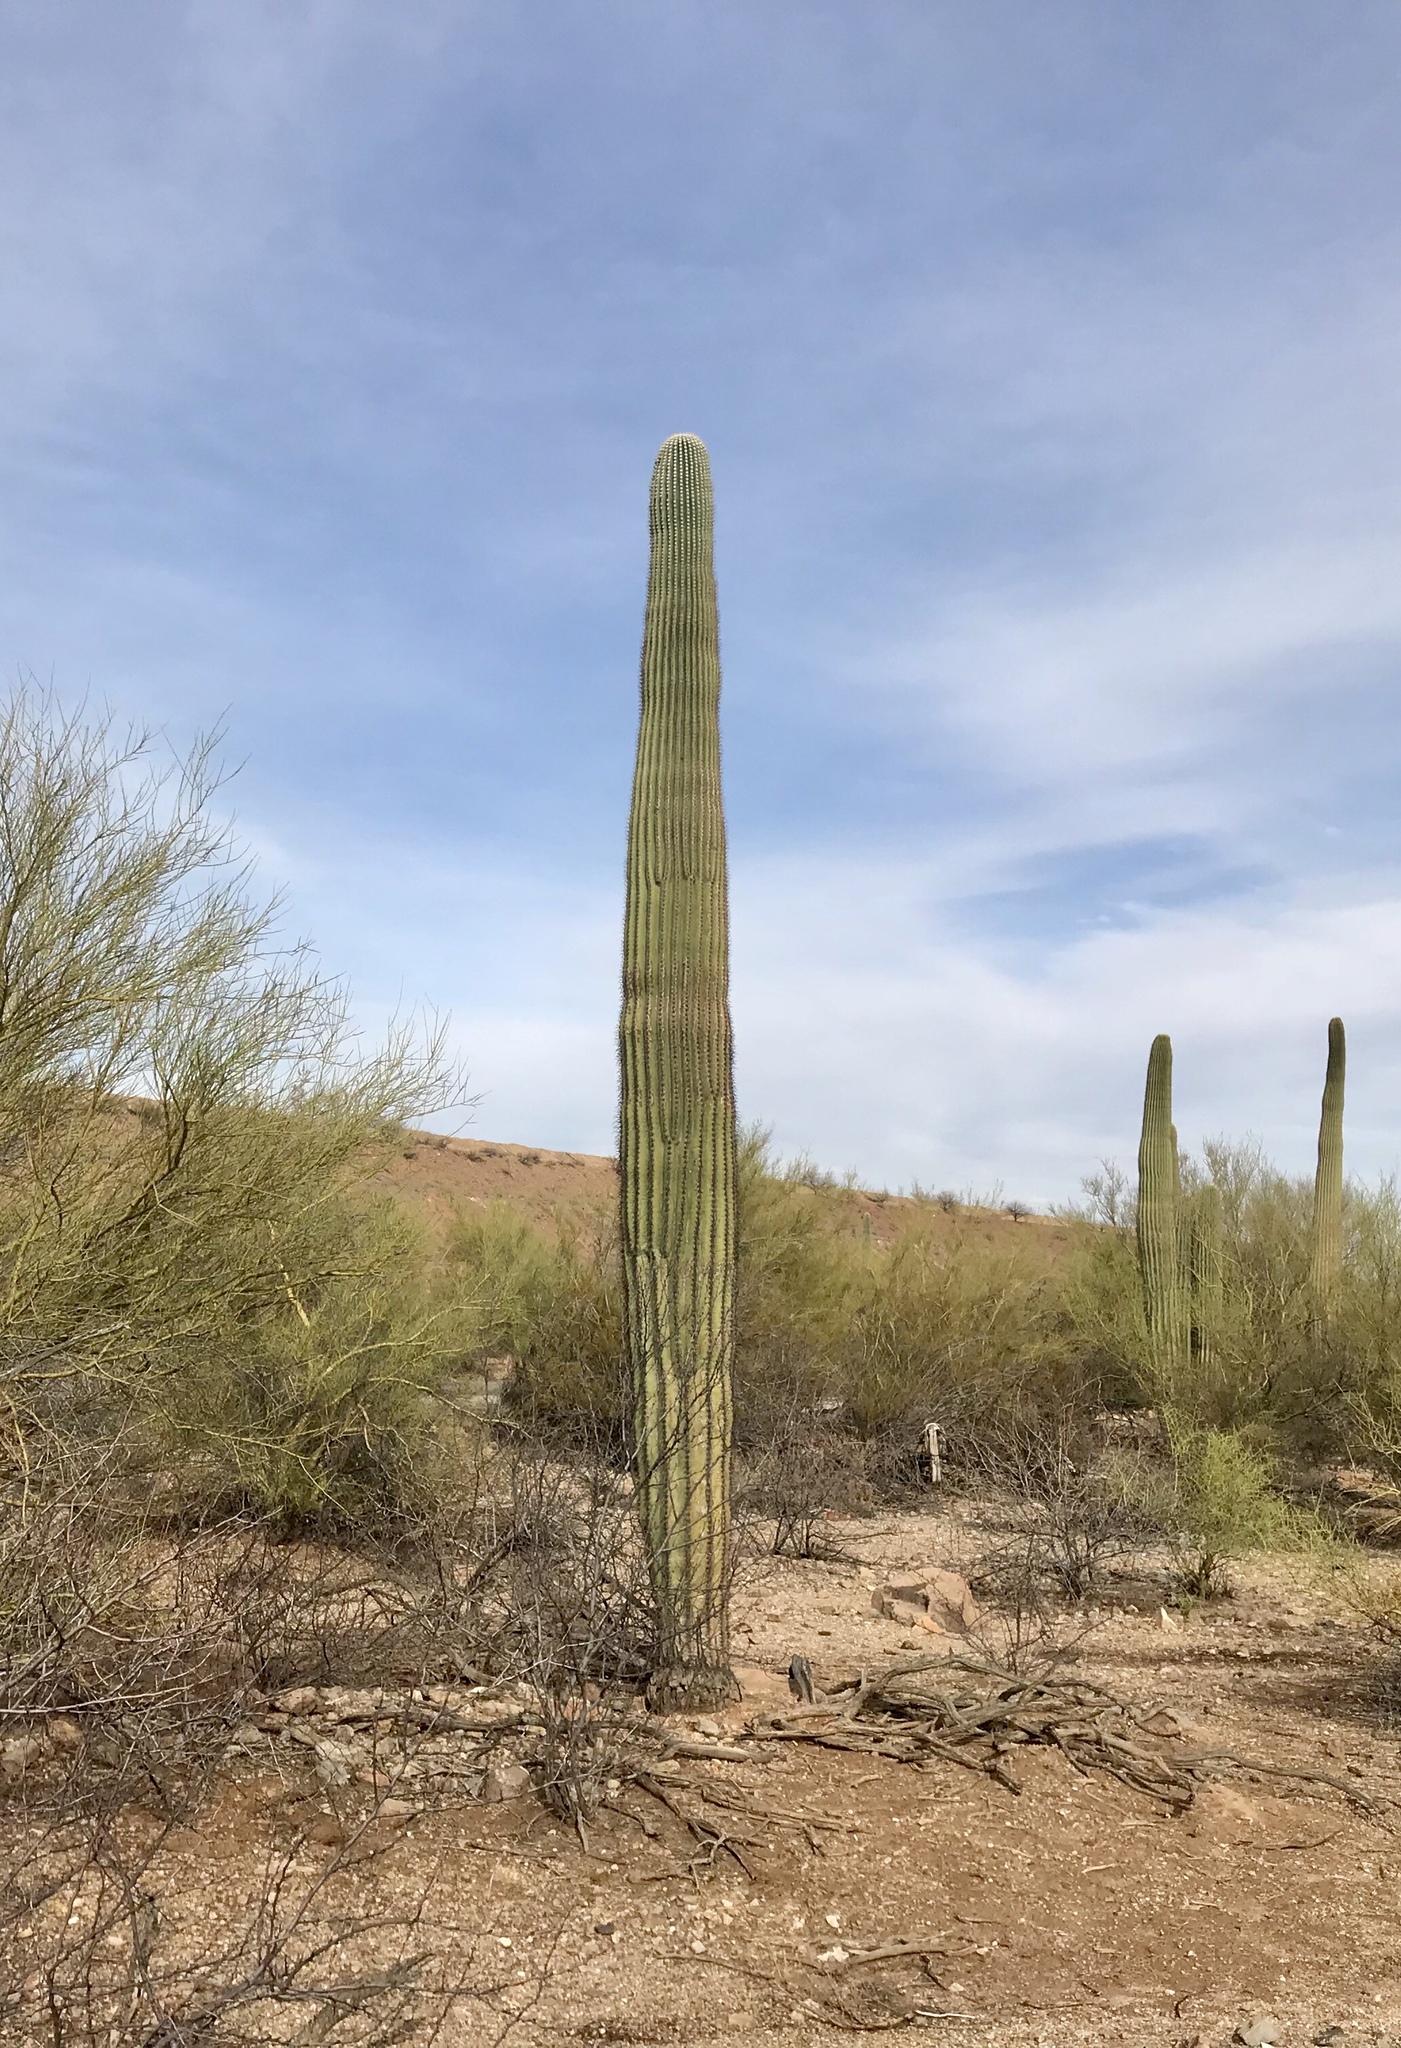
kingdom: Plantae
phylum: Tracheophyta
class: Magnoliopsida
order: Caryophyllales
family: Cactaceae
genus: Carnegiea
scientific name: Carnegiea gigantea
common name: Saguaro
